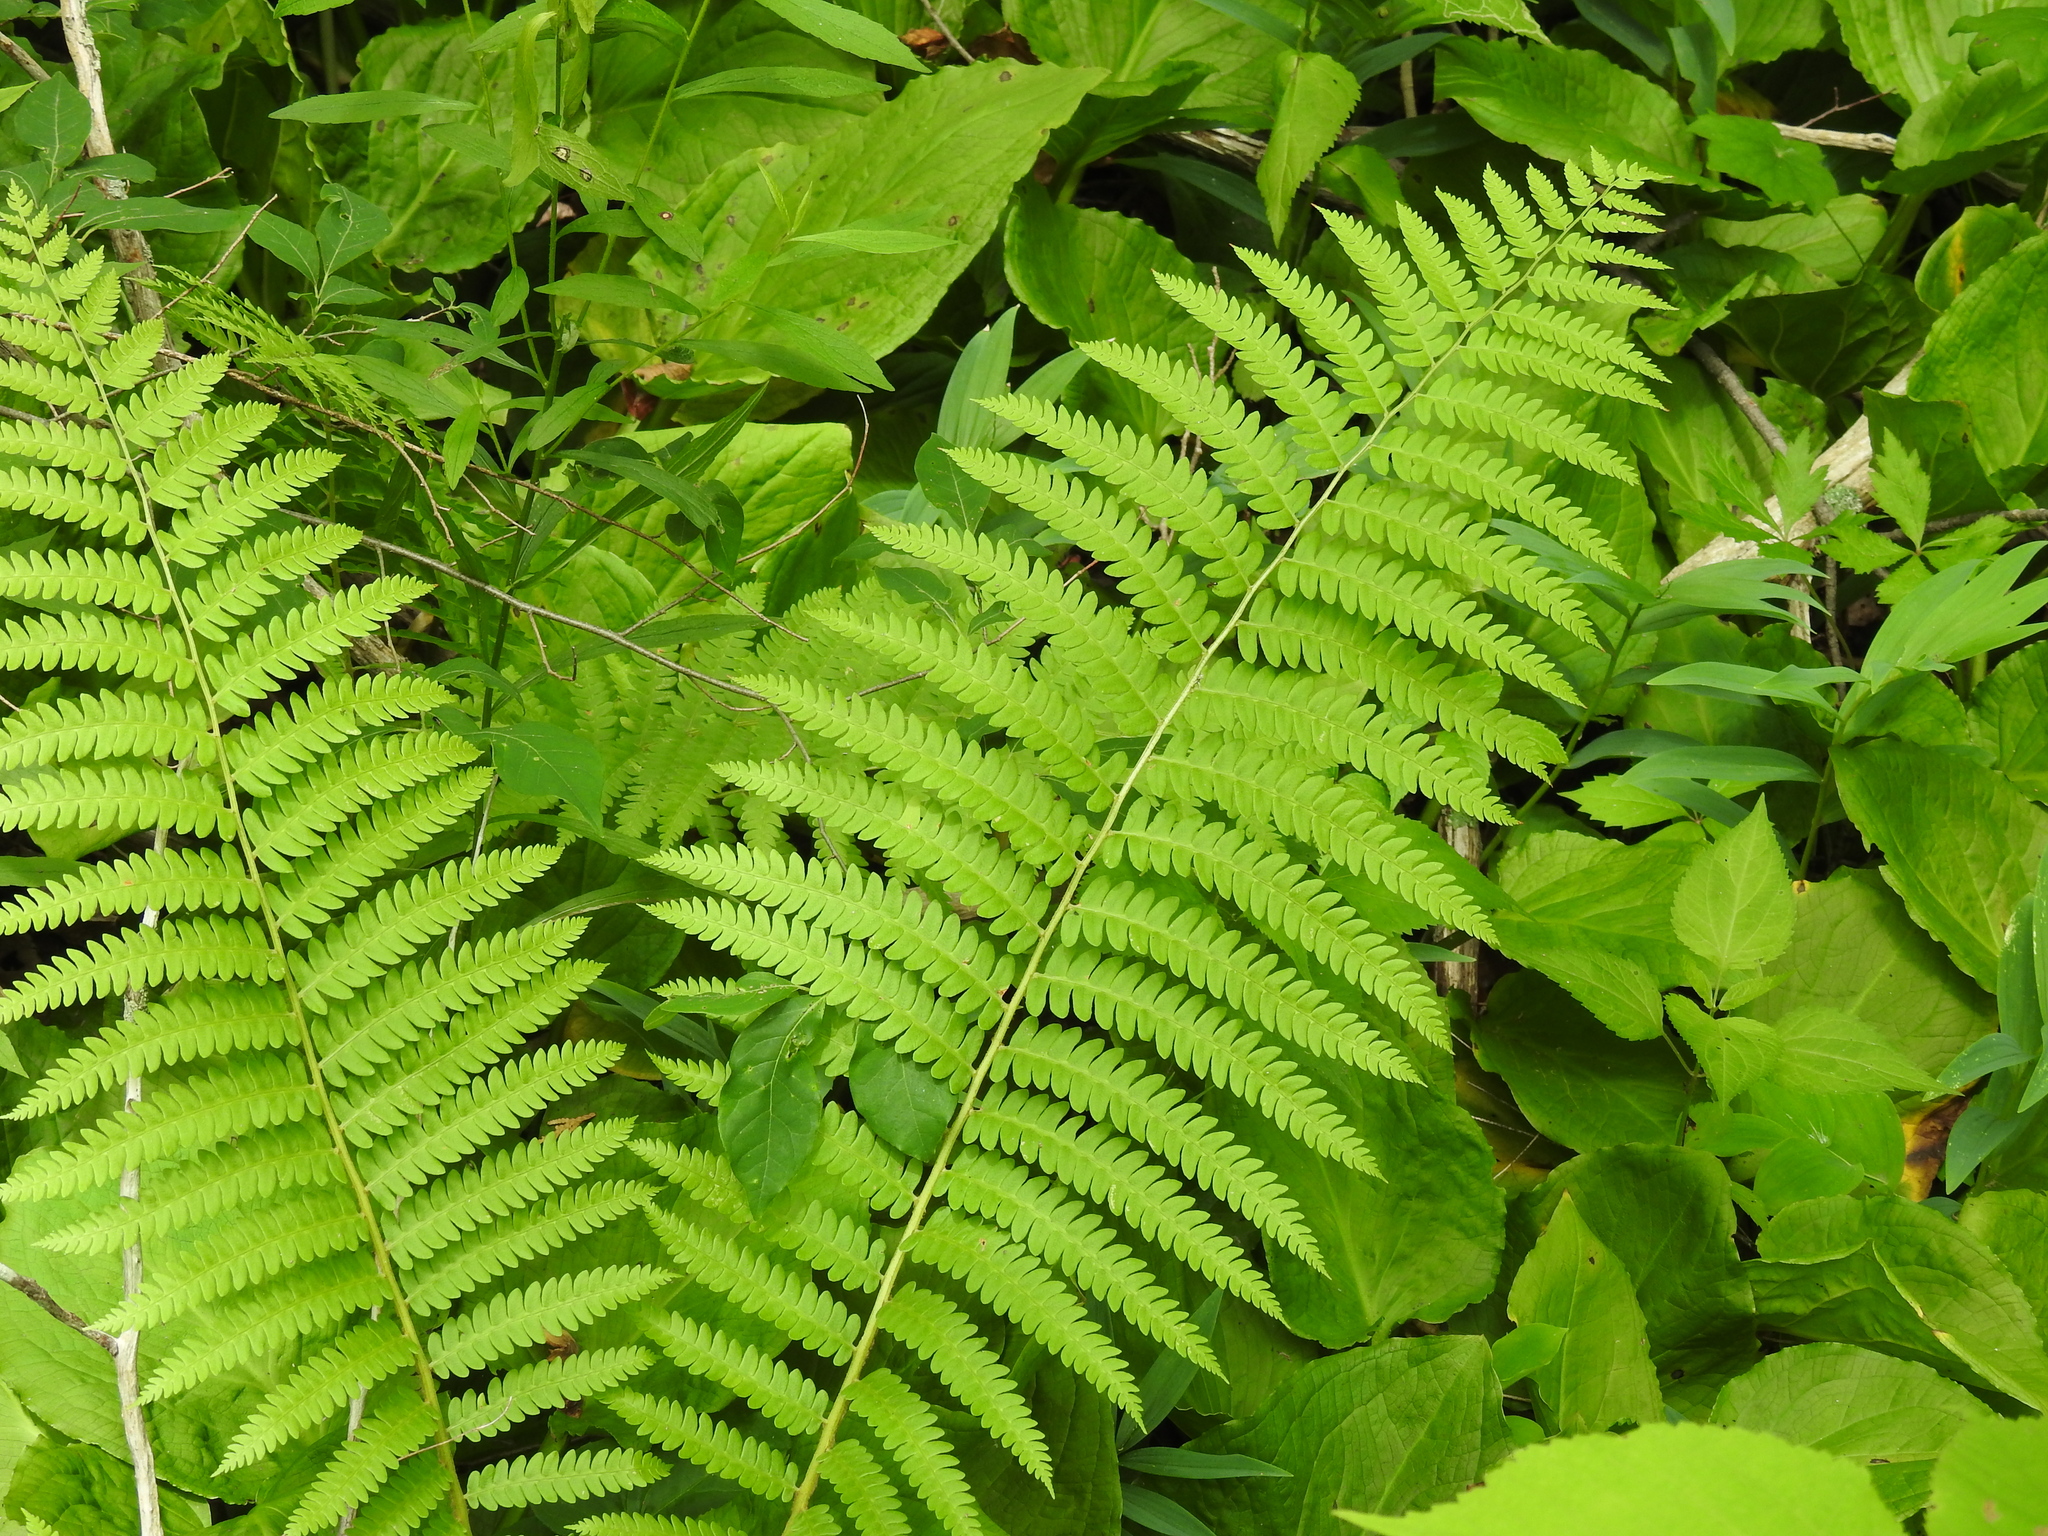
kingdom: Plantae
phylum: Tracheophyta
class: Polypodiopsida
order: Osmundales
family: Osmundaceae
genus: Osmundastrum
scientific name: Osmundastrum cinnamomeum
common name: Cinnamon fern
